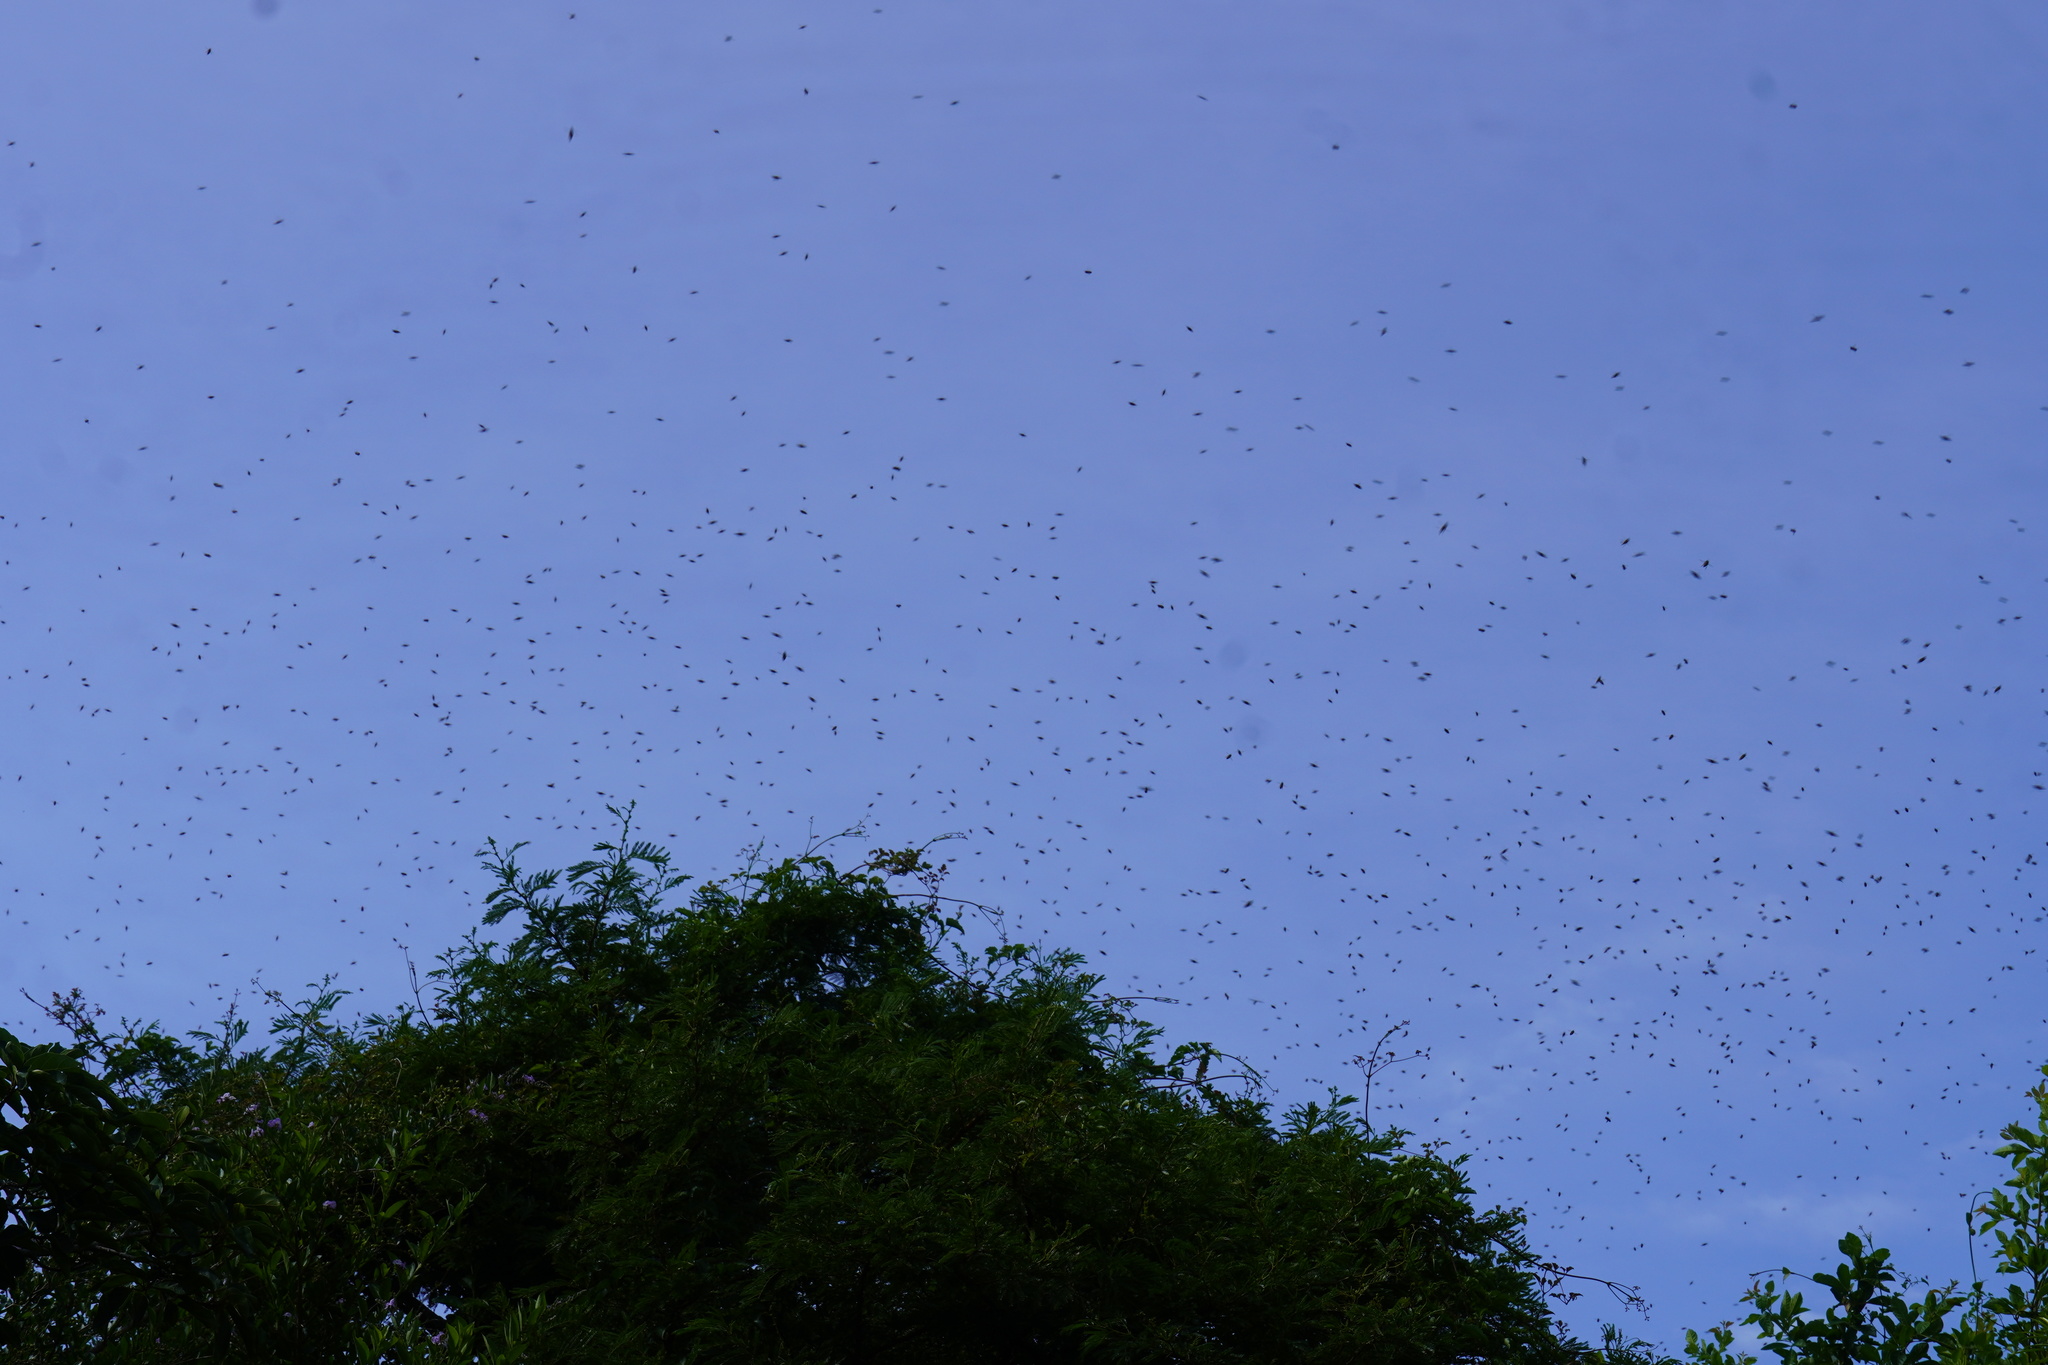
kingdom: Animalia
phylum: Arthropoda
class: Insecta
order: Hymenoptera
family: Apidae
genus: Apis
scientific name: Apis mellifera
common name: Honey bee
